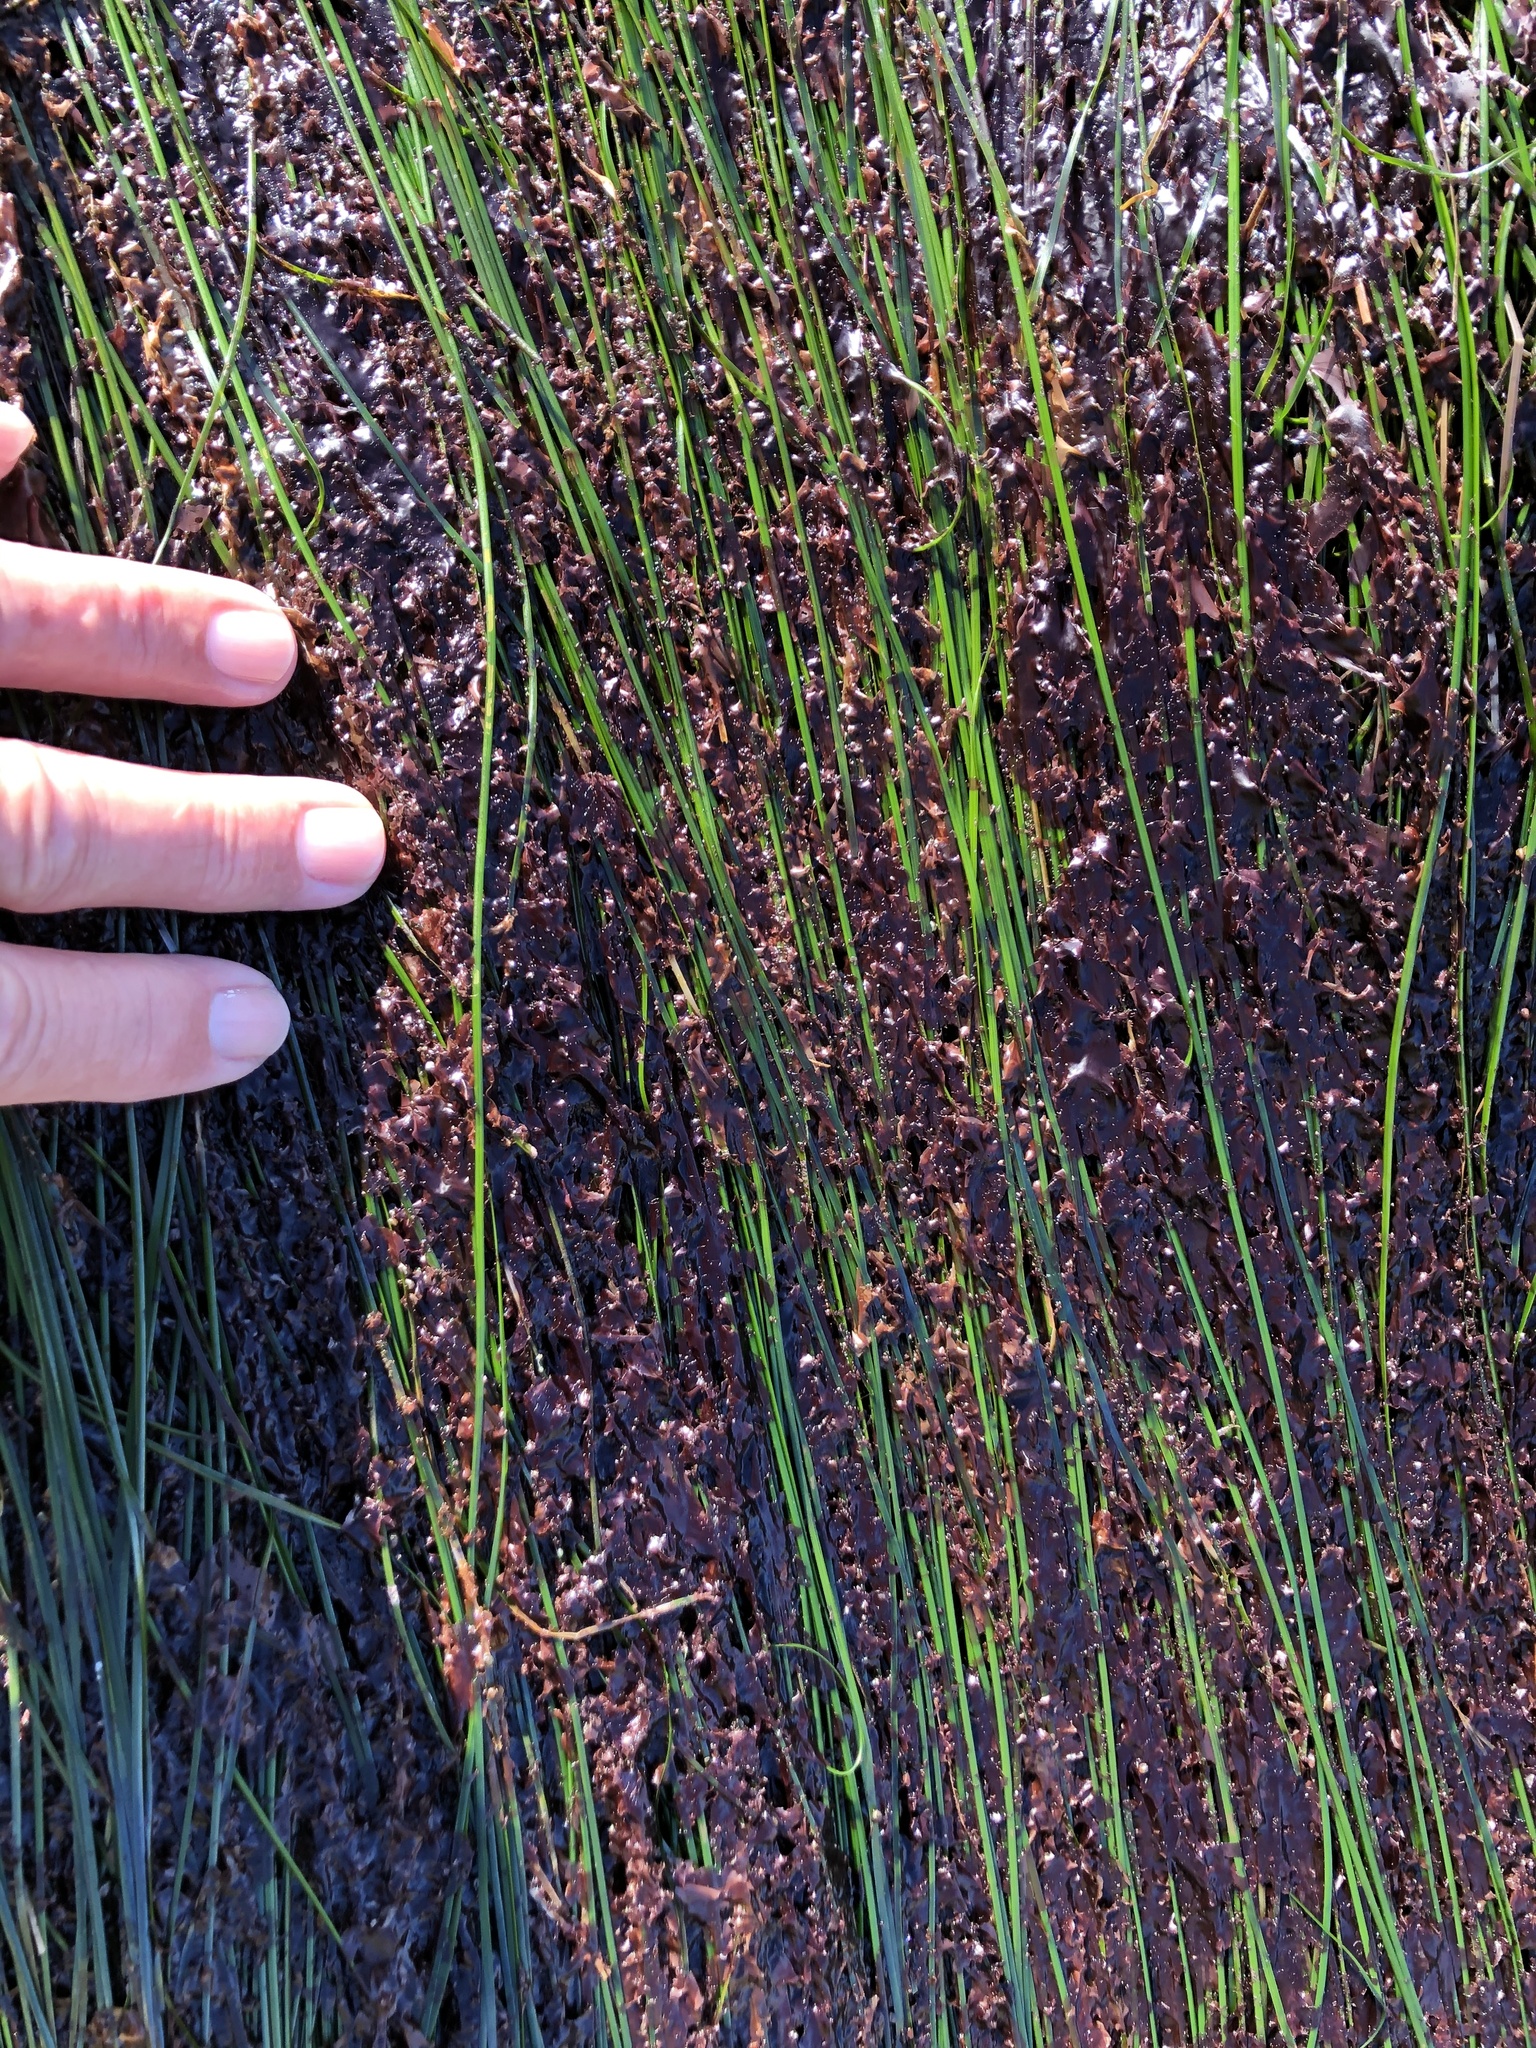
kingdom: Plantae
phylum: Rhodophyta
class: Compsopogonophyceae
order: Erythropeltidales
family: Erythrotrichiaceae
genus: Smithora
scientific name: Smithora naiadum
